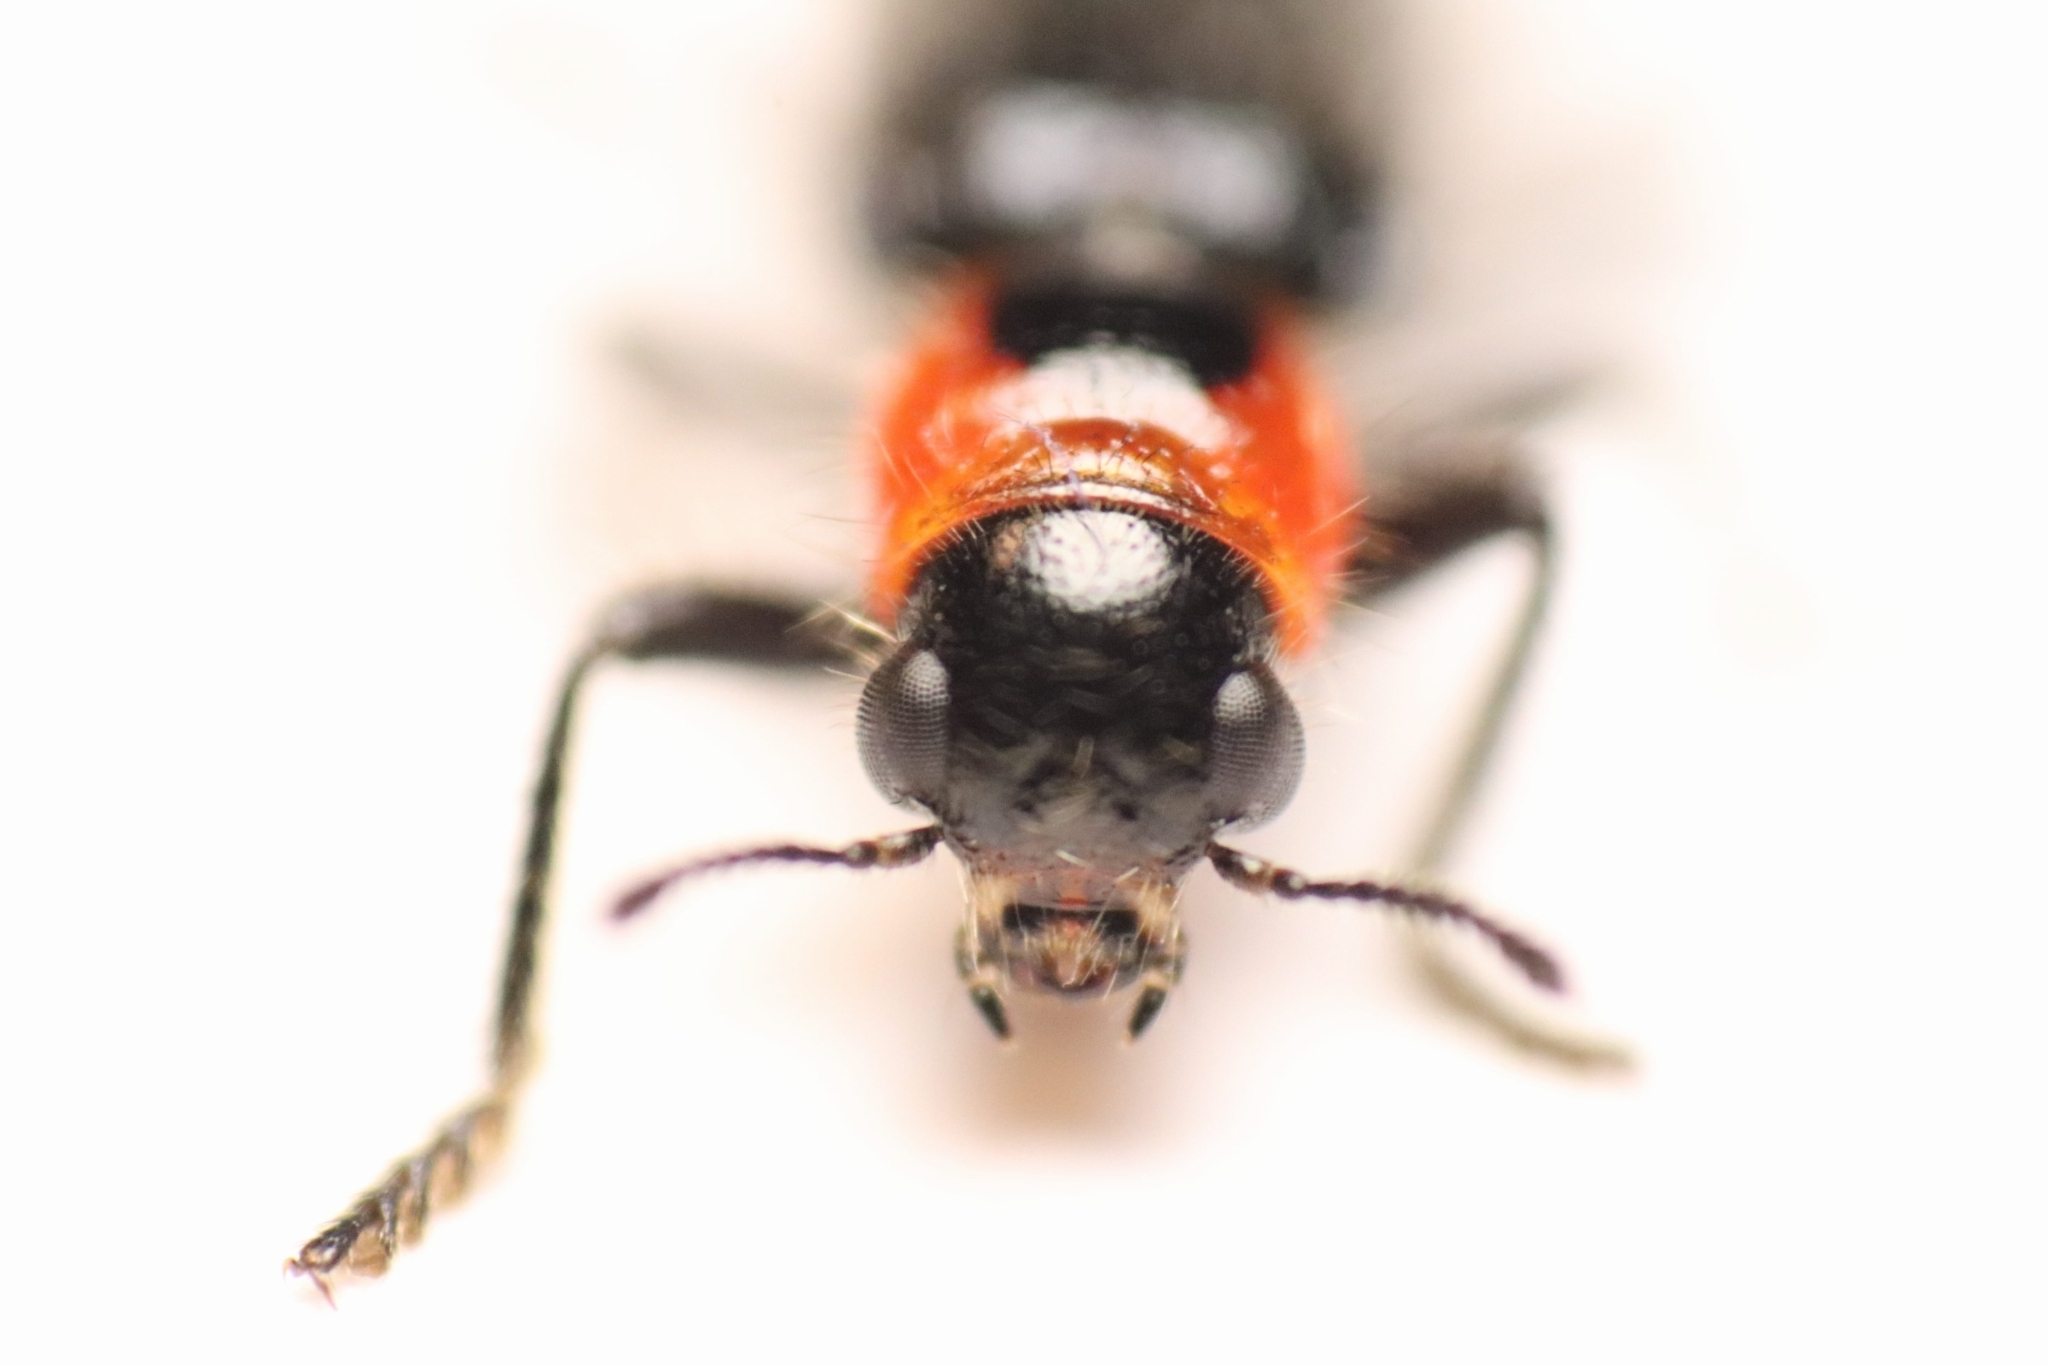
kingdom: Animalia
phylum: Arthropoda
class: Insecta
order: Coleoptera
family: Cleridae
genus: Placopterus
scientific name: Placopterus thoracicus
